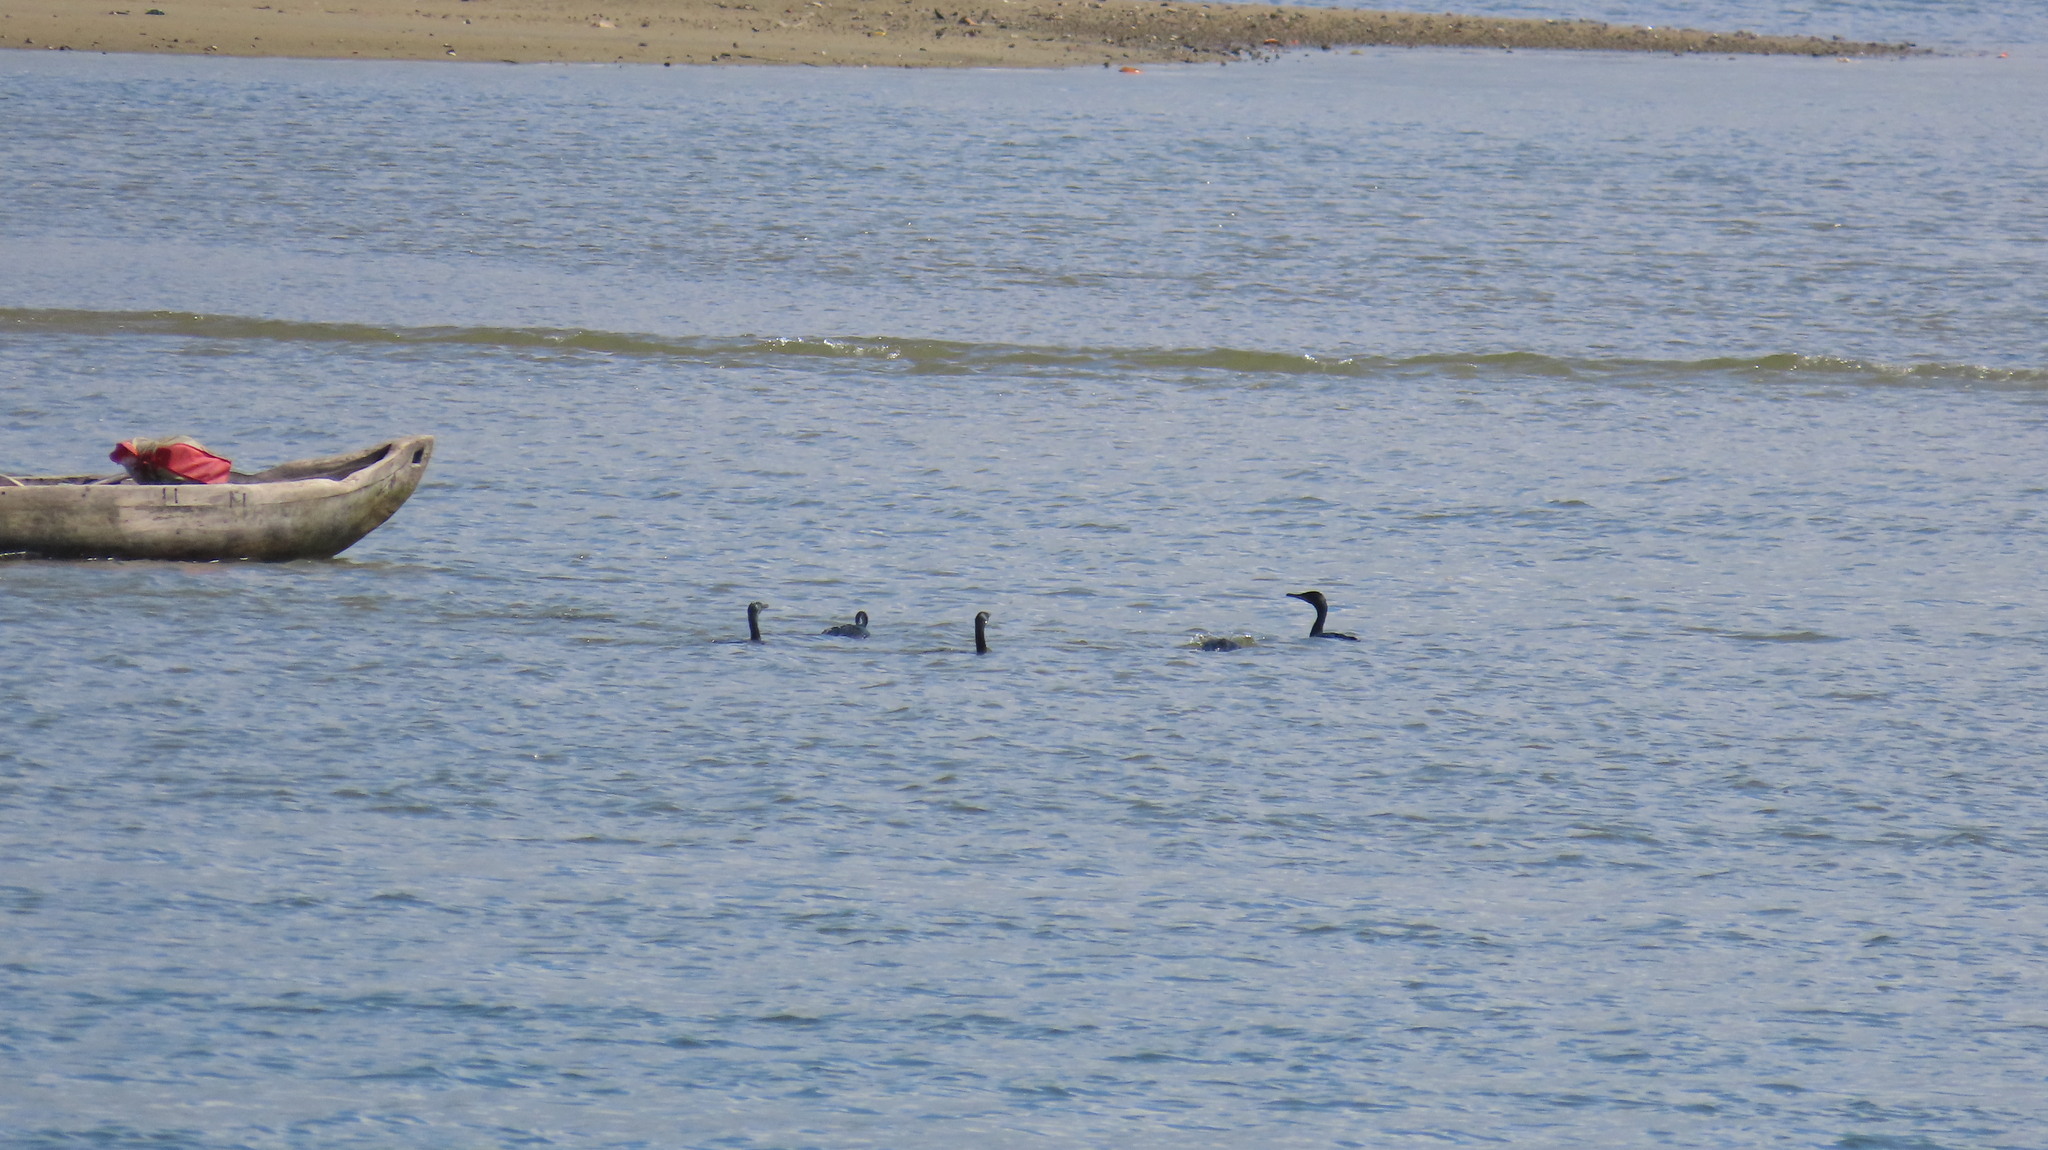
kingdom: Animalia
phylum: Chordata
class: Aves
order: Suliformes
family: Phalacrocoracidae
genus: Phalacrocorax
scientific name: Phalacrocorax fuscicollis
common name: Indian cormorant
